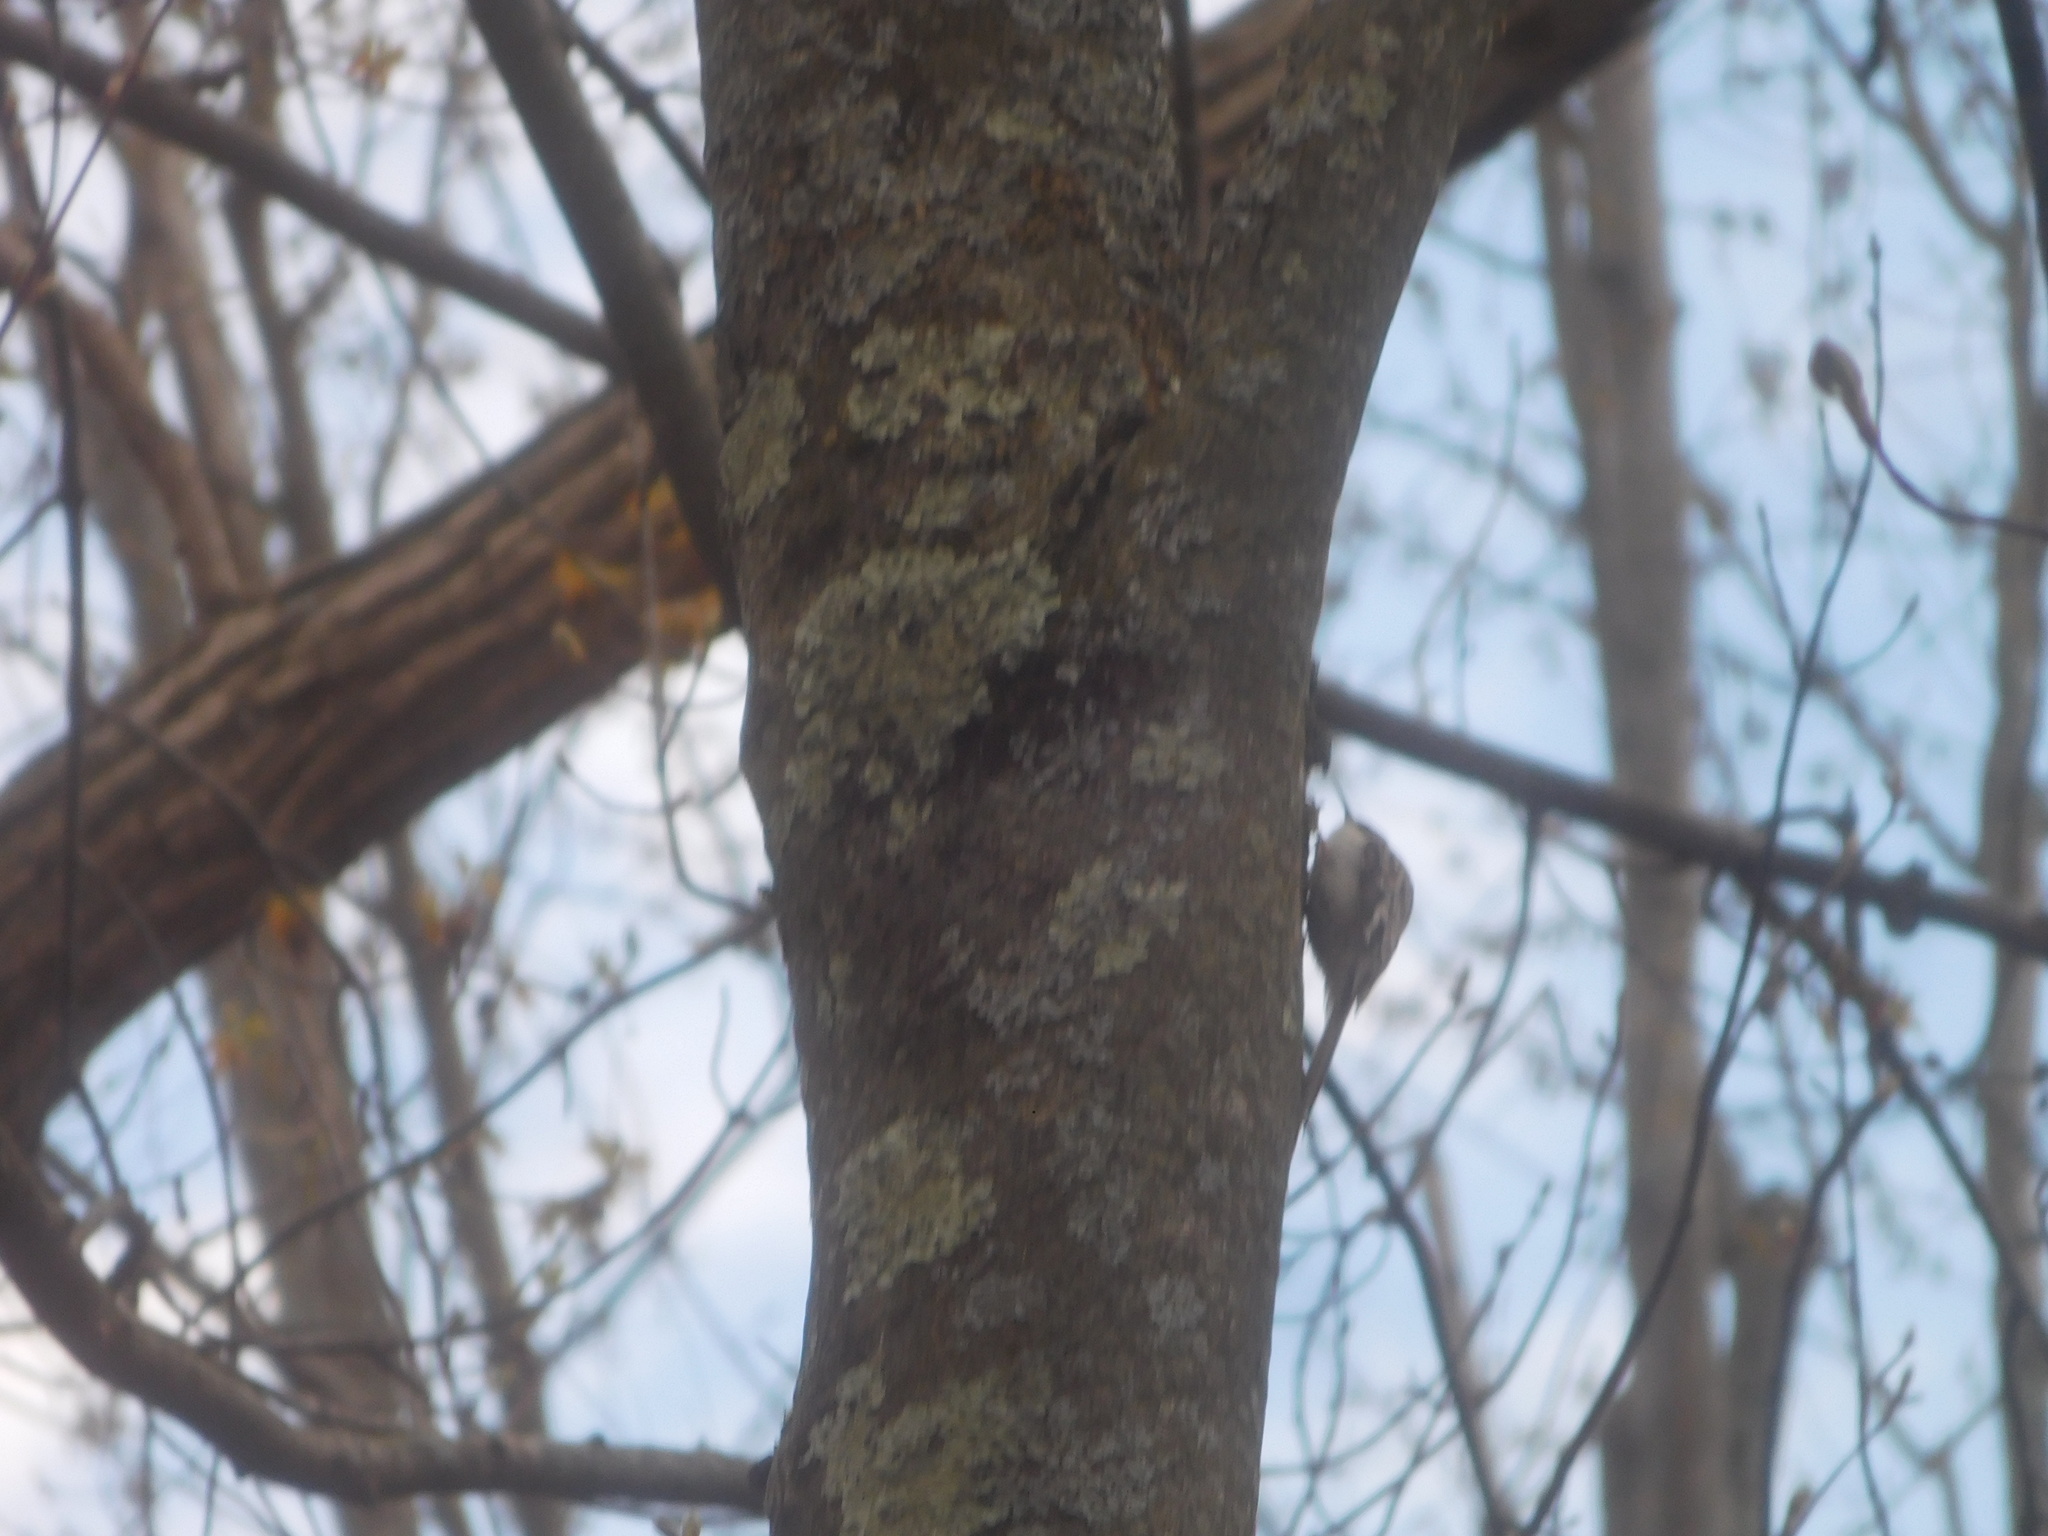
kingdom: Animalia
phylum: Chordata
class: Aves
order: Passeriformes
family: Certhiidae
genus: Certhia
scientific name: Certhia americana
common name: Brown creeper
